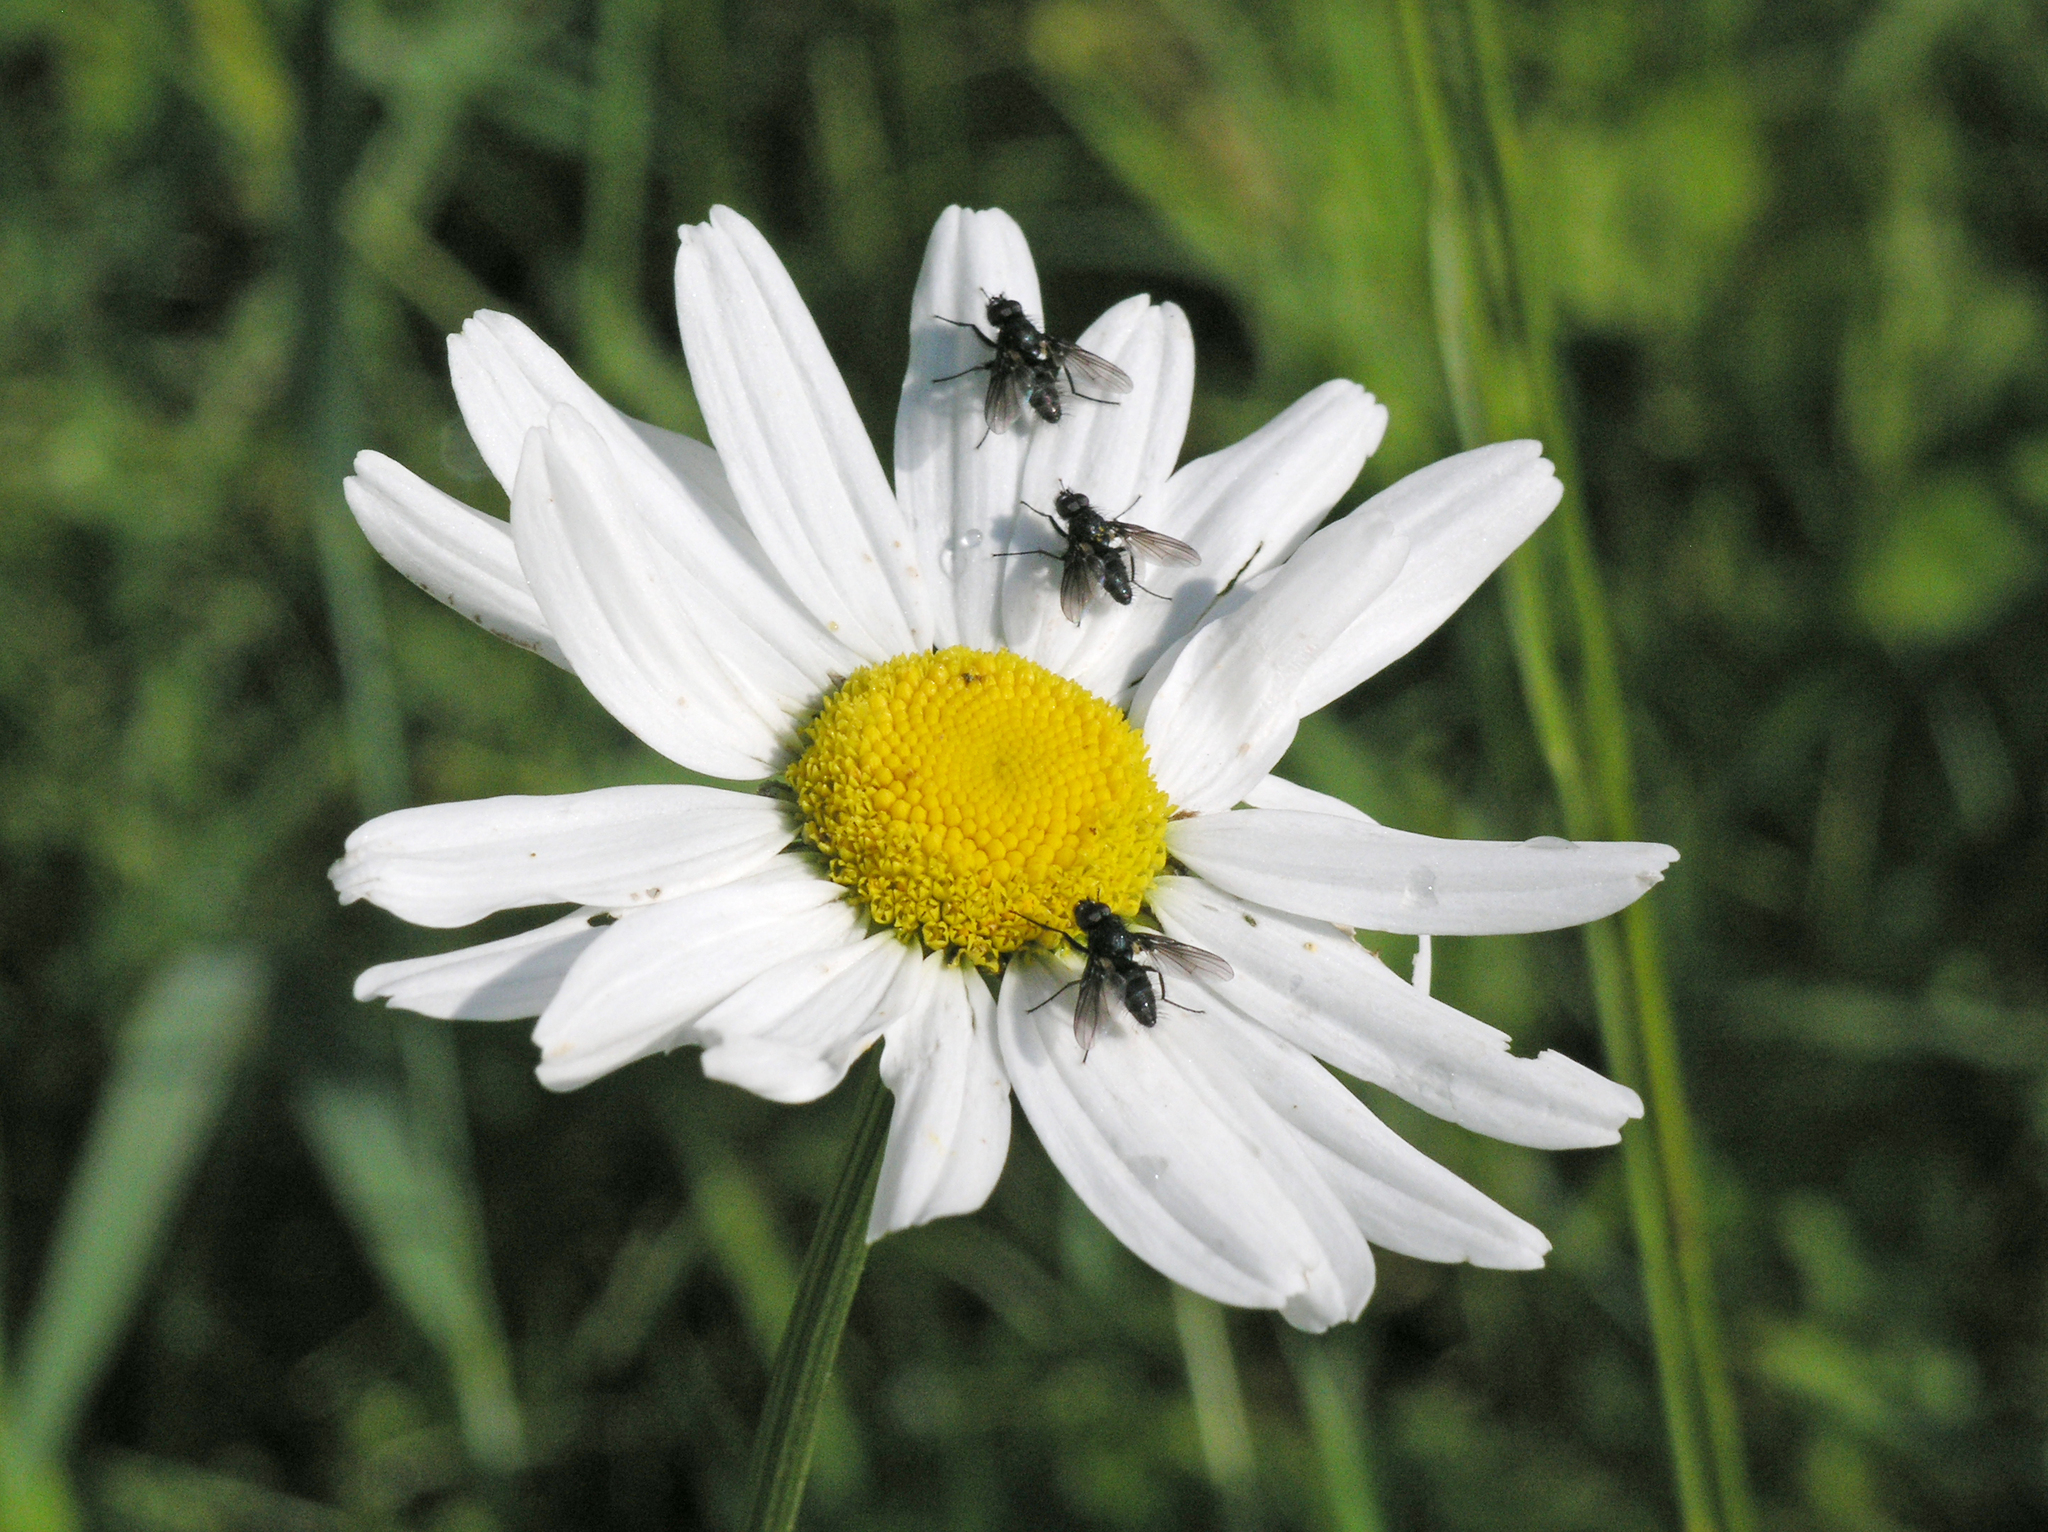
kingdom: Plantae
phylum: Tracheophyta
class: Magnoliopsida
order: Asterales
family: Asteraceae
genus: Leucanthemum
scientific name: Leucanthemum ircutianum
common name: Daisy
